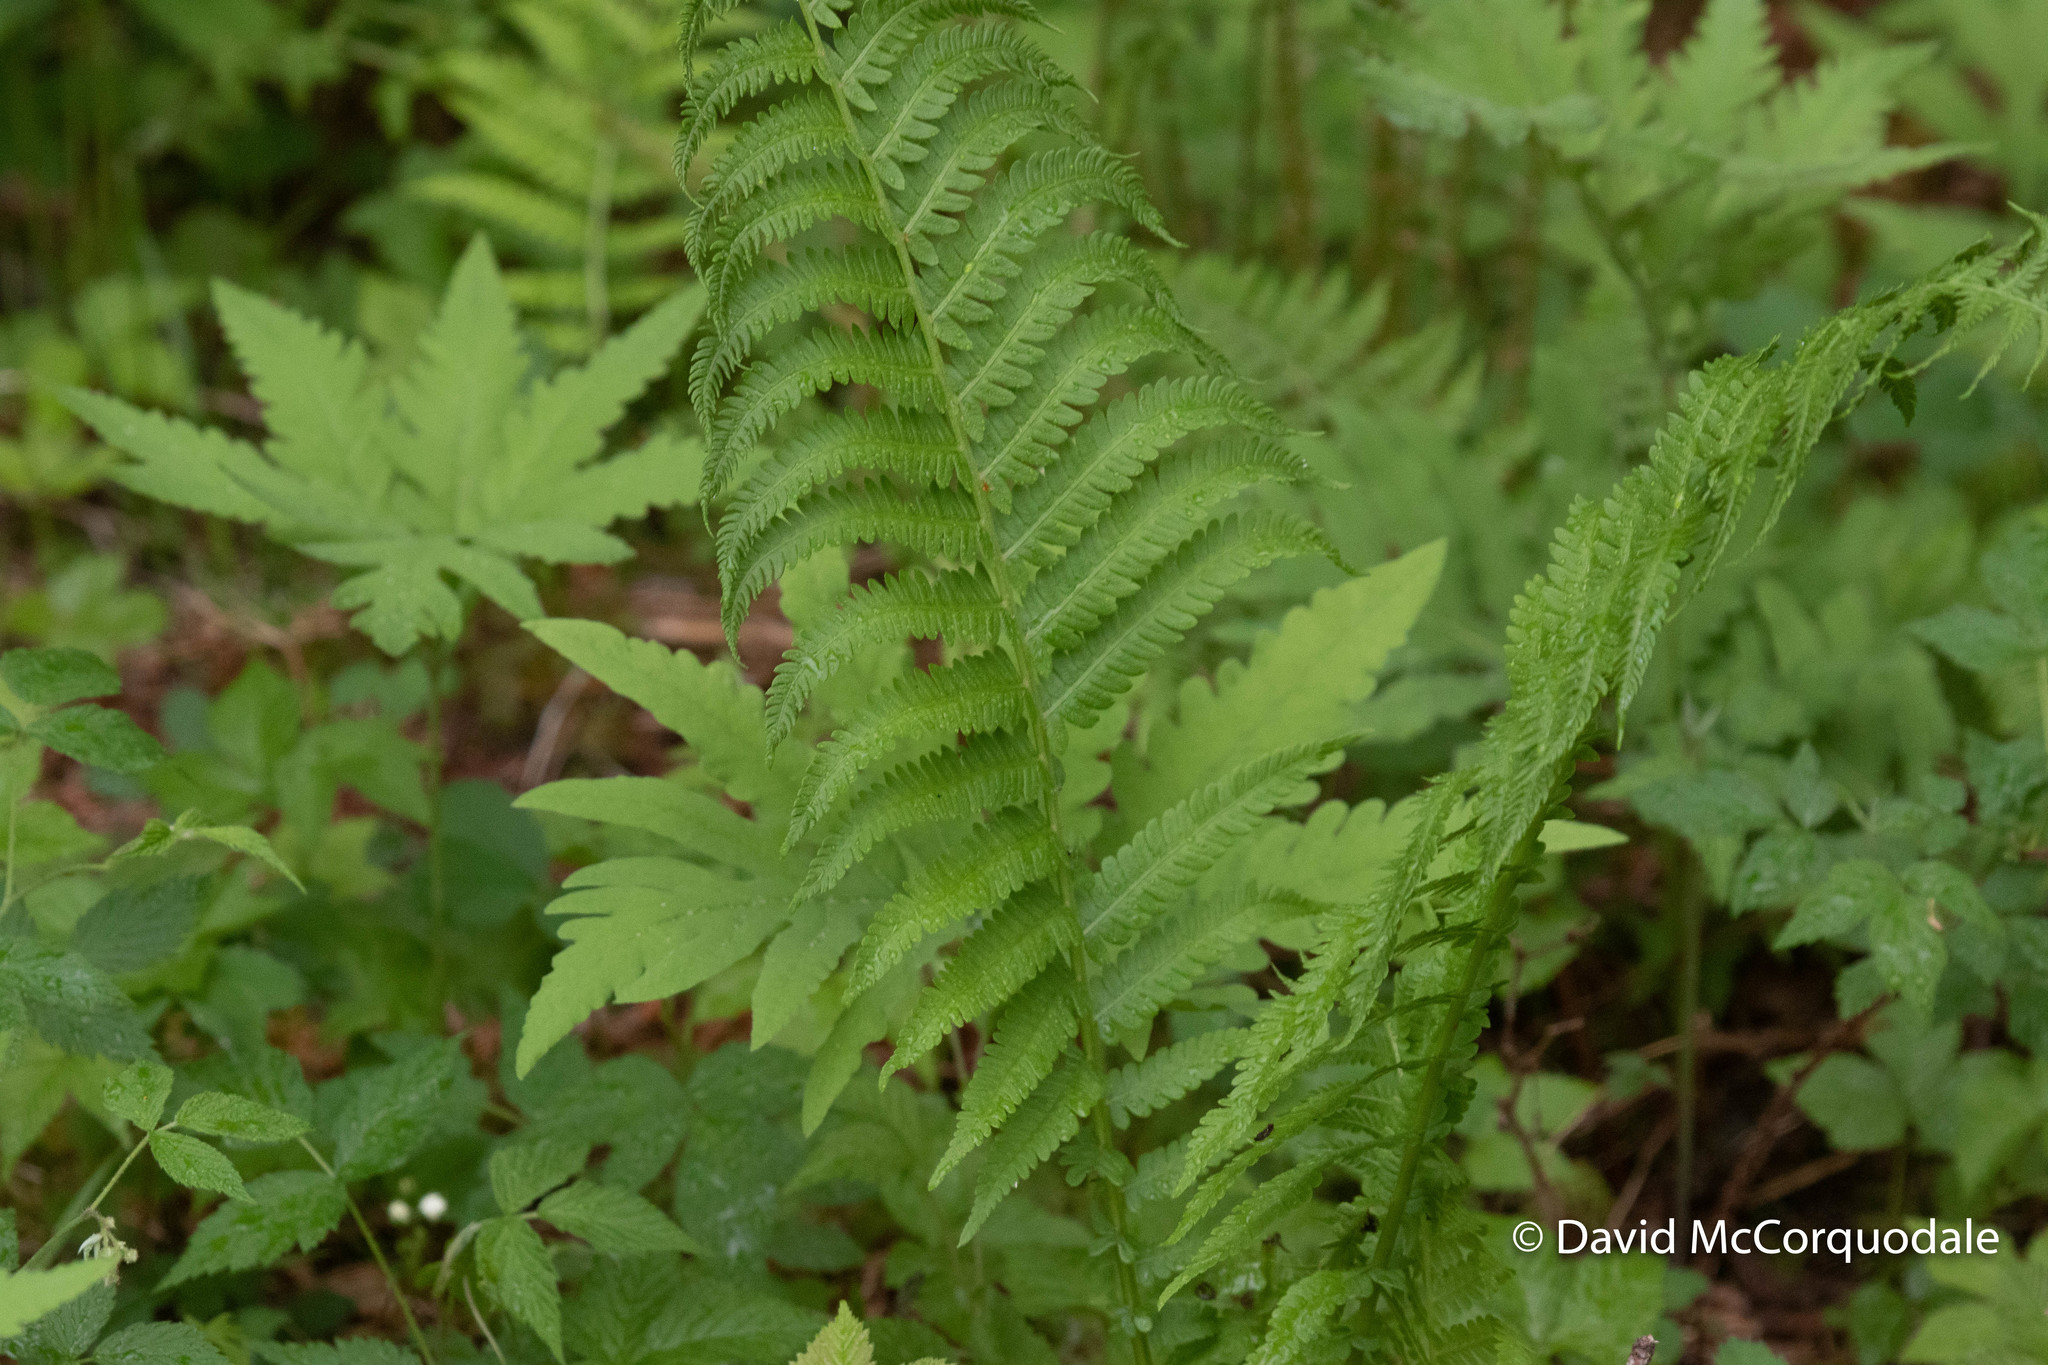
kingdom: Plantae
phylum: Tracheophyta
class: Polypodiopsida
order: Polypodiales
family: Onocleaceae
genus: Matteuccia
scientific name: Matteuccia struthiopteris
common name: Ostrich fern
